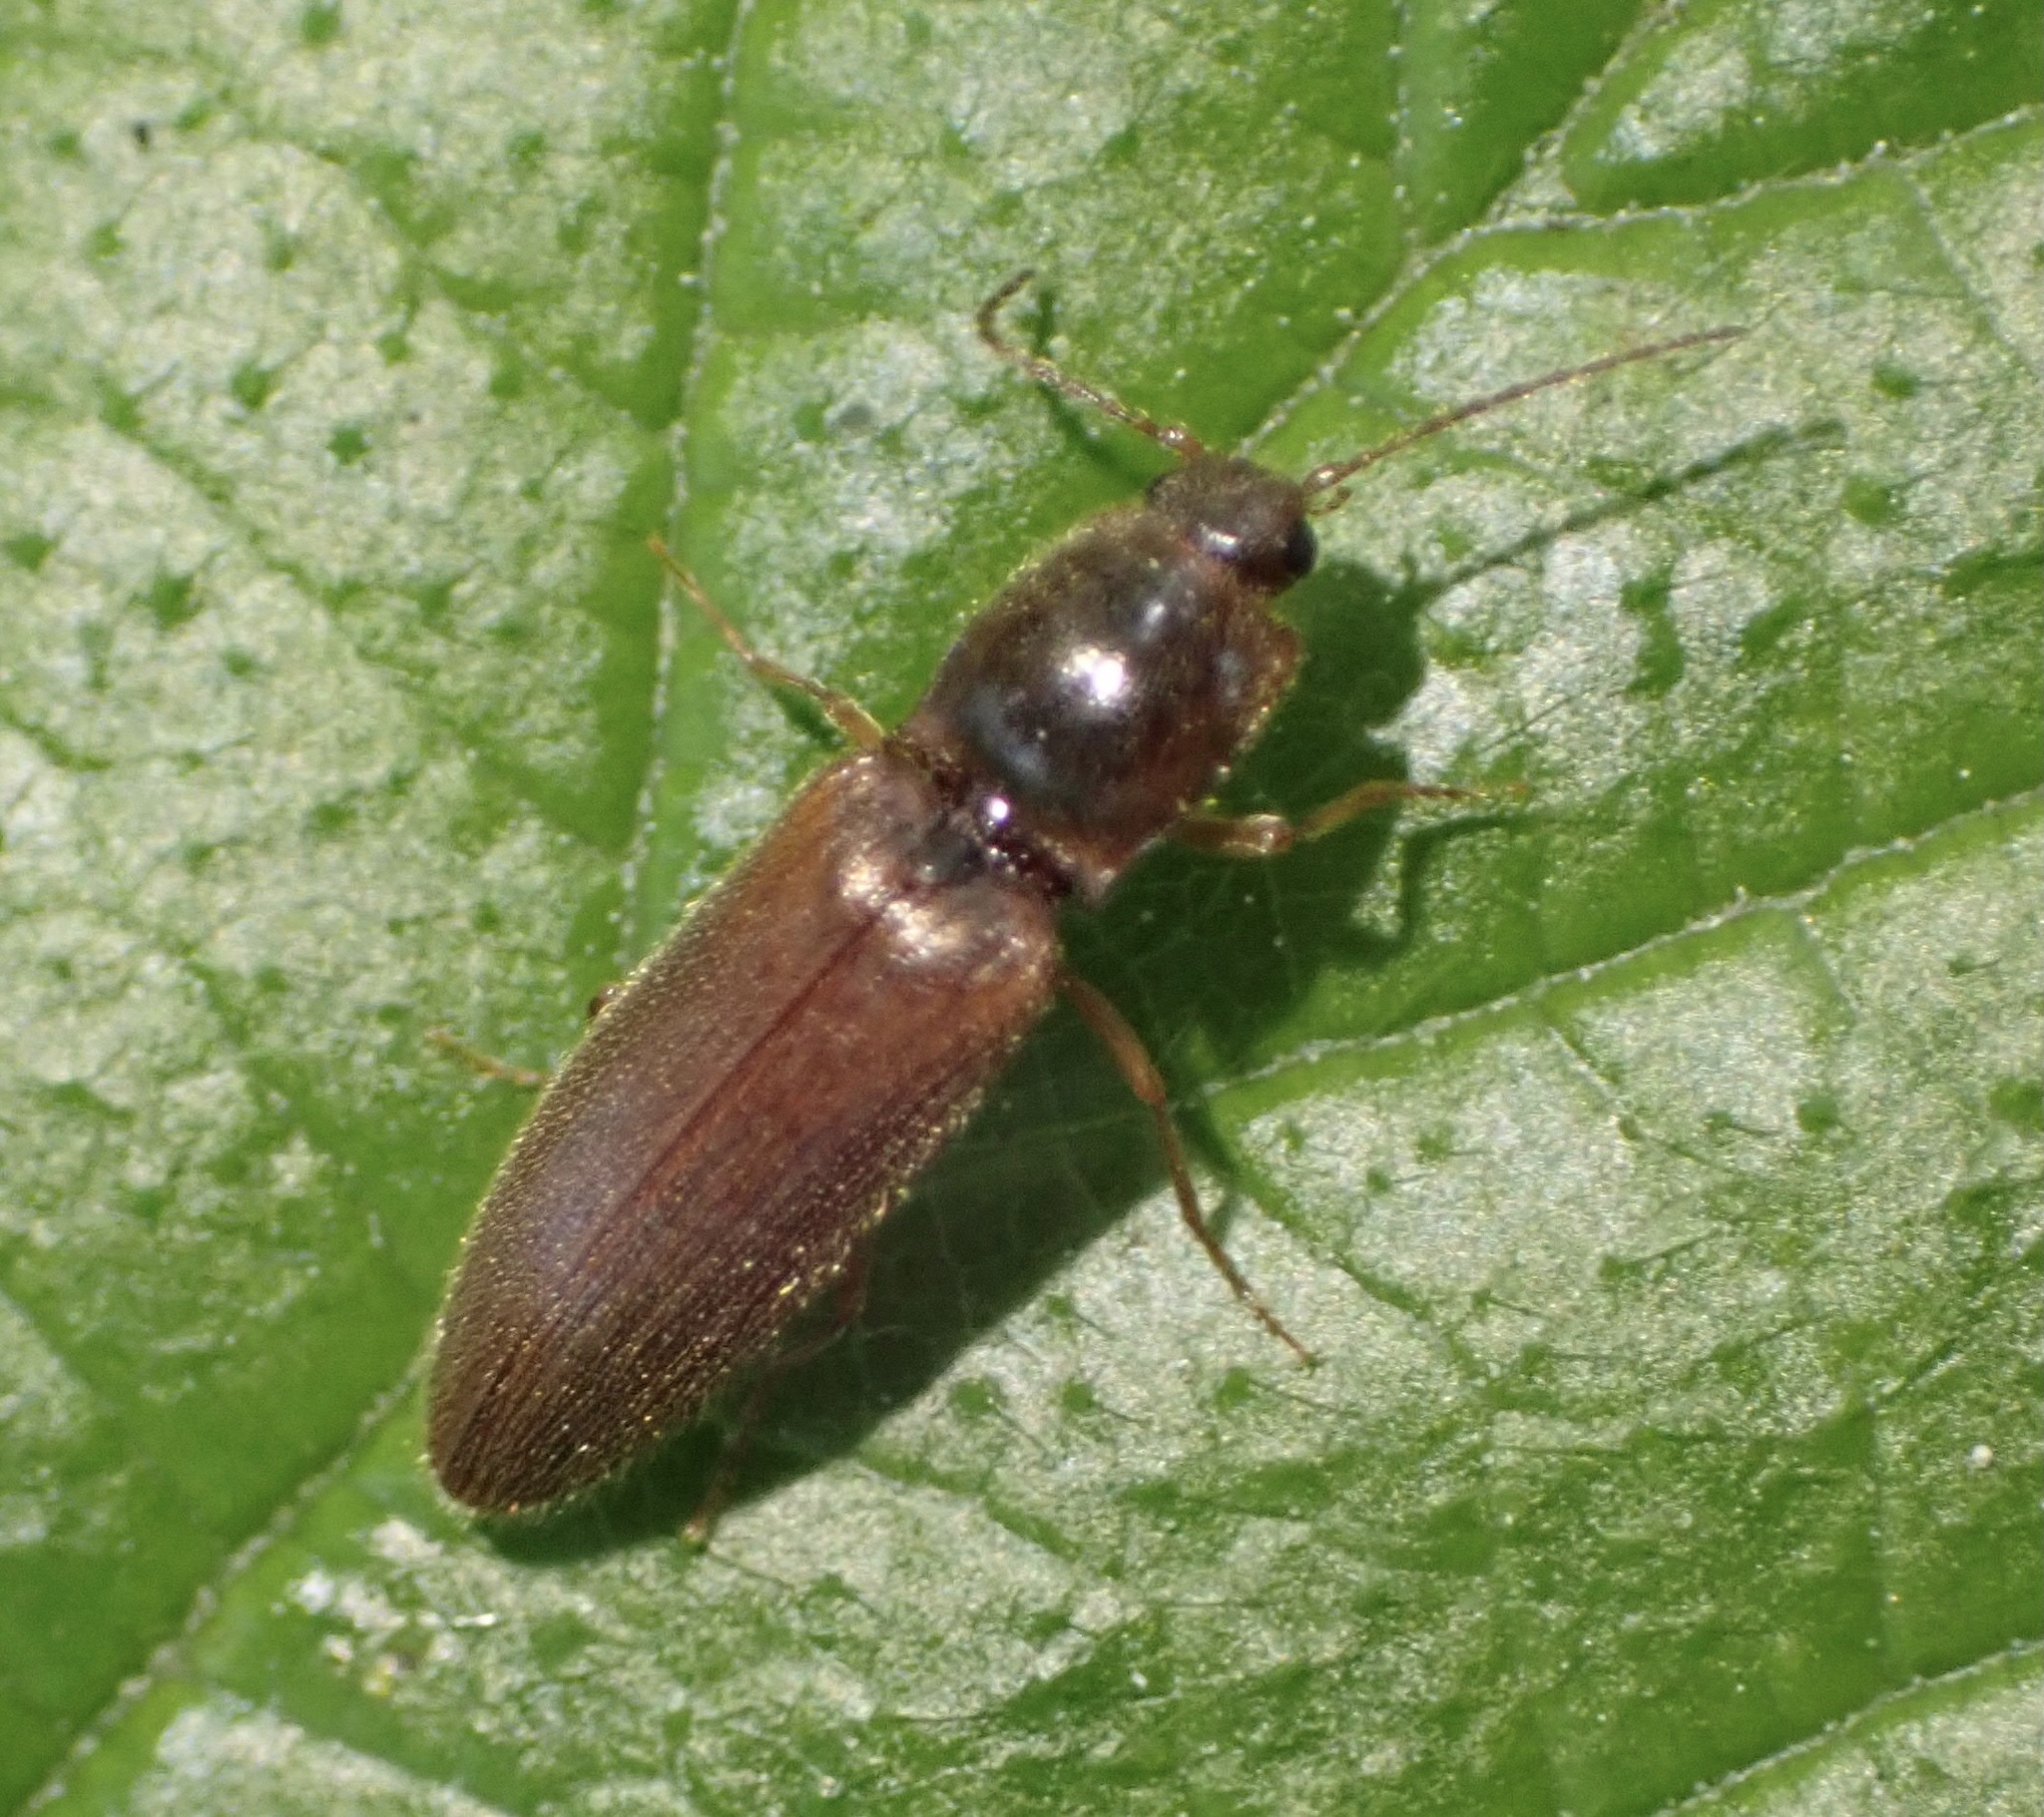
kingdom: Animalia
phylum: Arthropoda
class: Insecta
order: Coleoptera
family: Elateridae
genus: Athous
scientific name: Athous subfuscus
